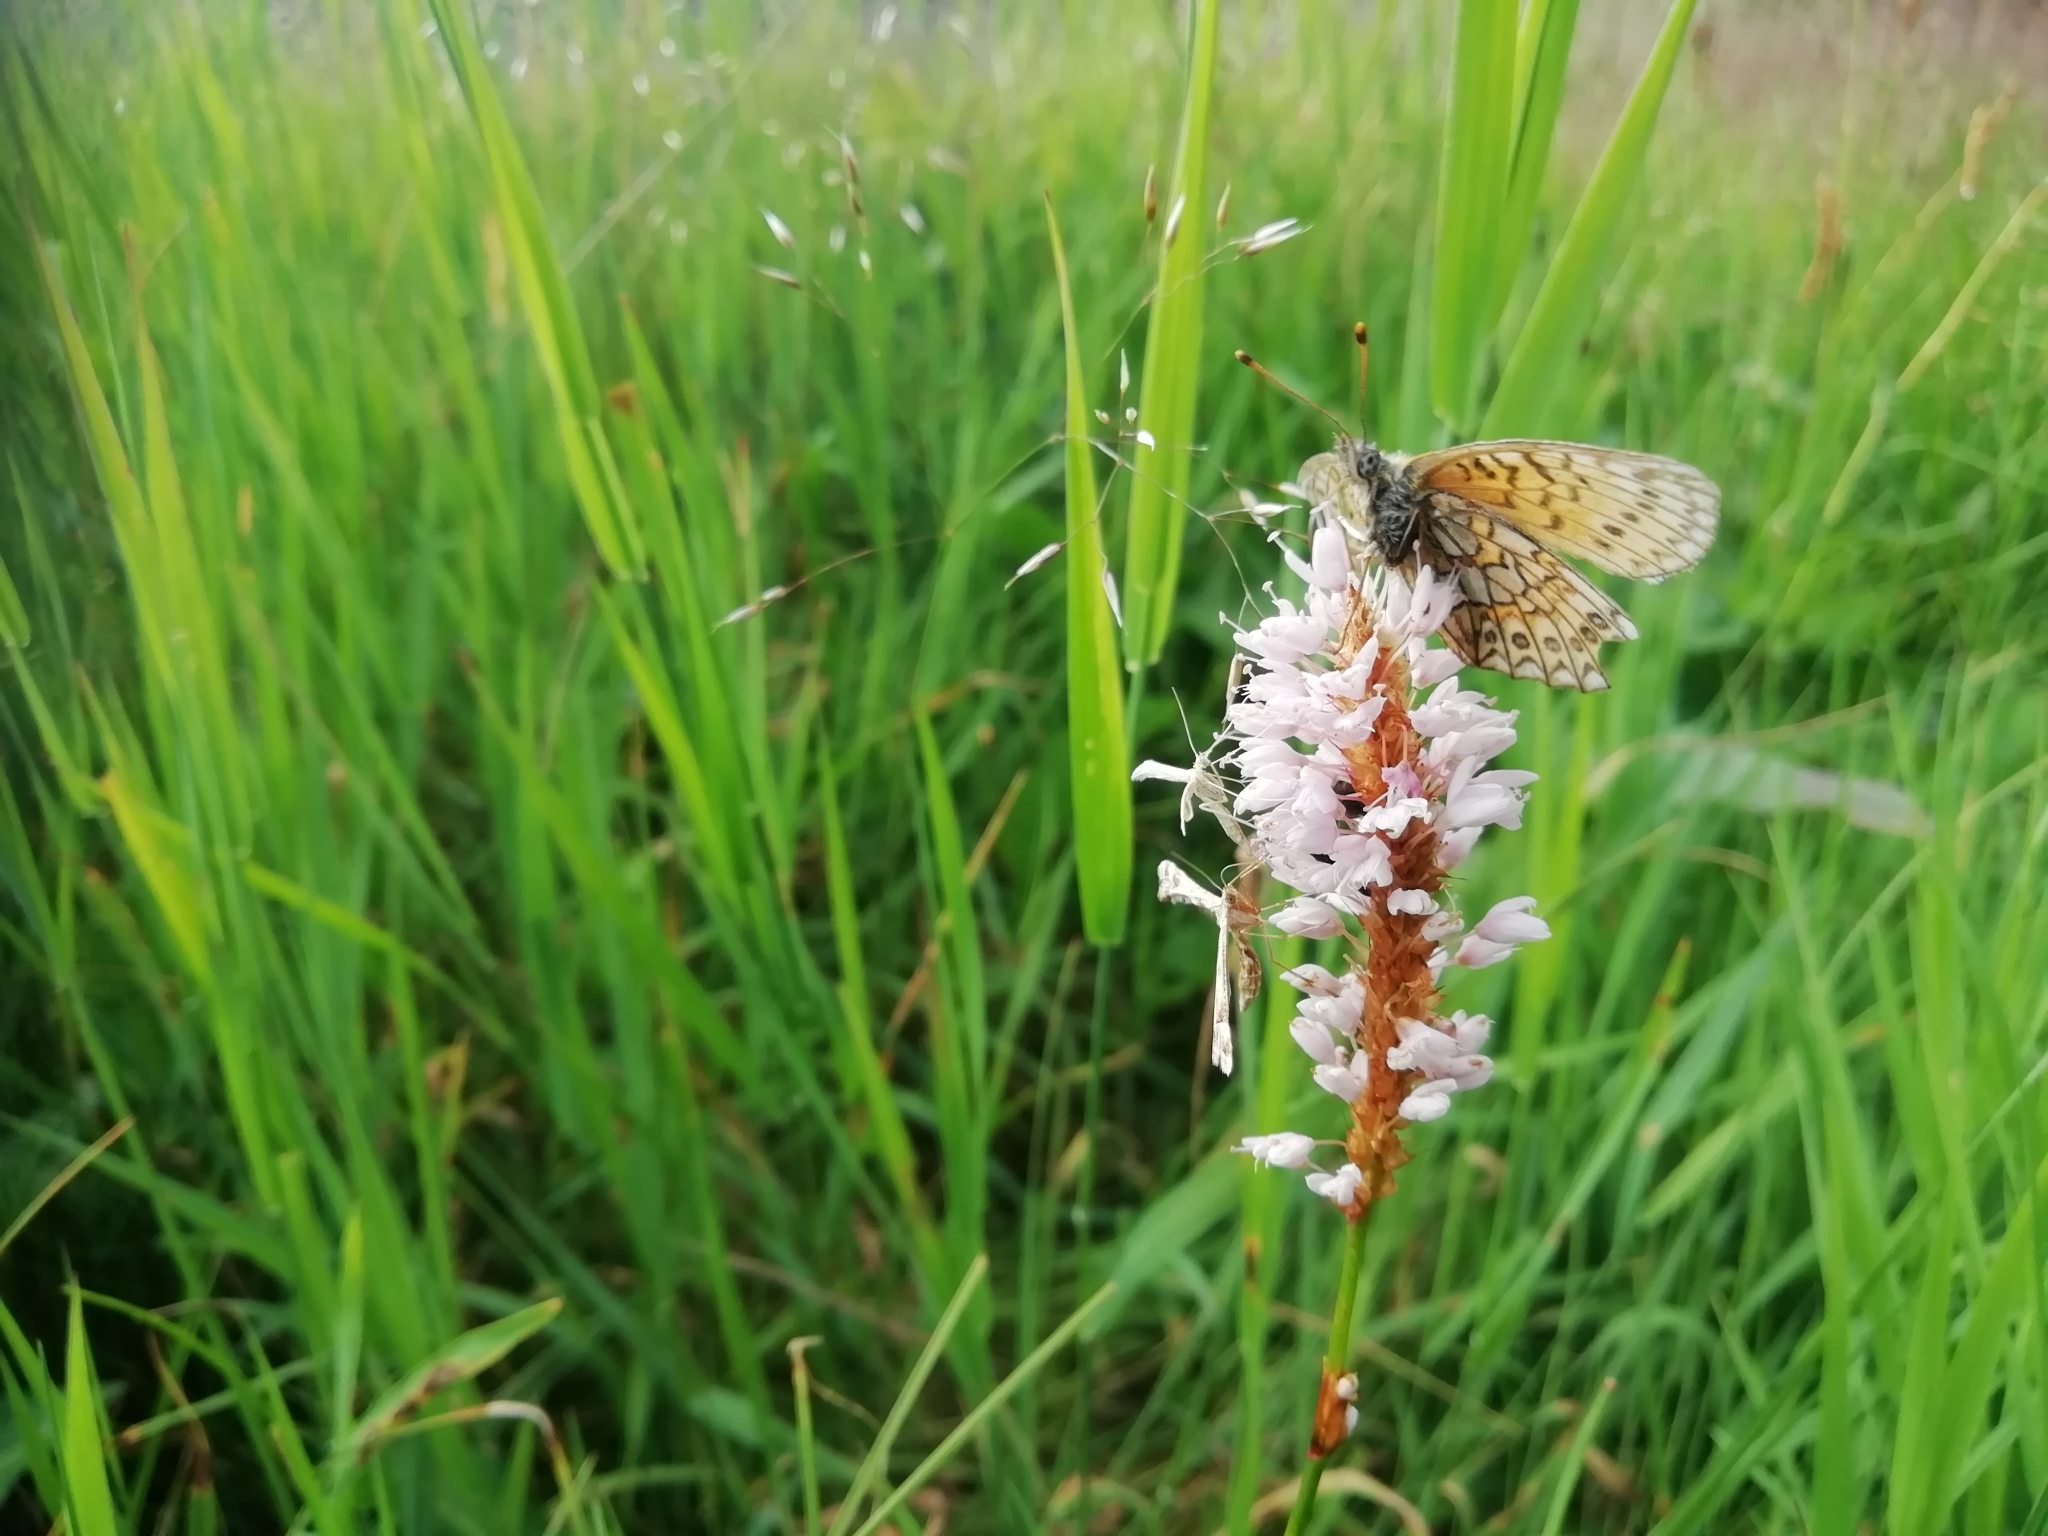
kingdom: Animalia
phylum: Arthropoda
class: Insecta
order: Lepidoptera
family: Nymphalidae
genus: Boloria
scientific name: Boloria eunomia
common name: Bog fritillary
